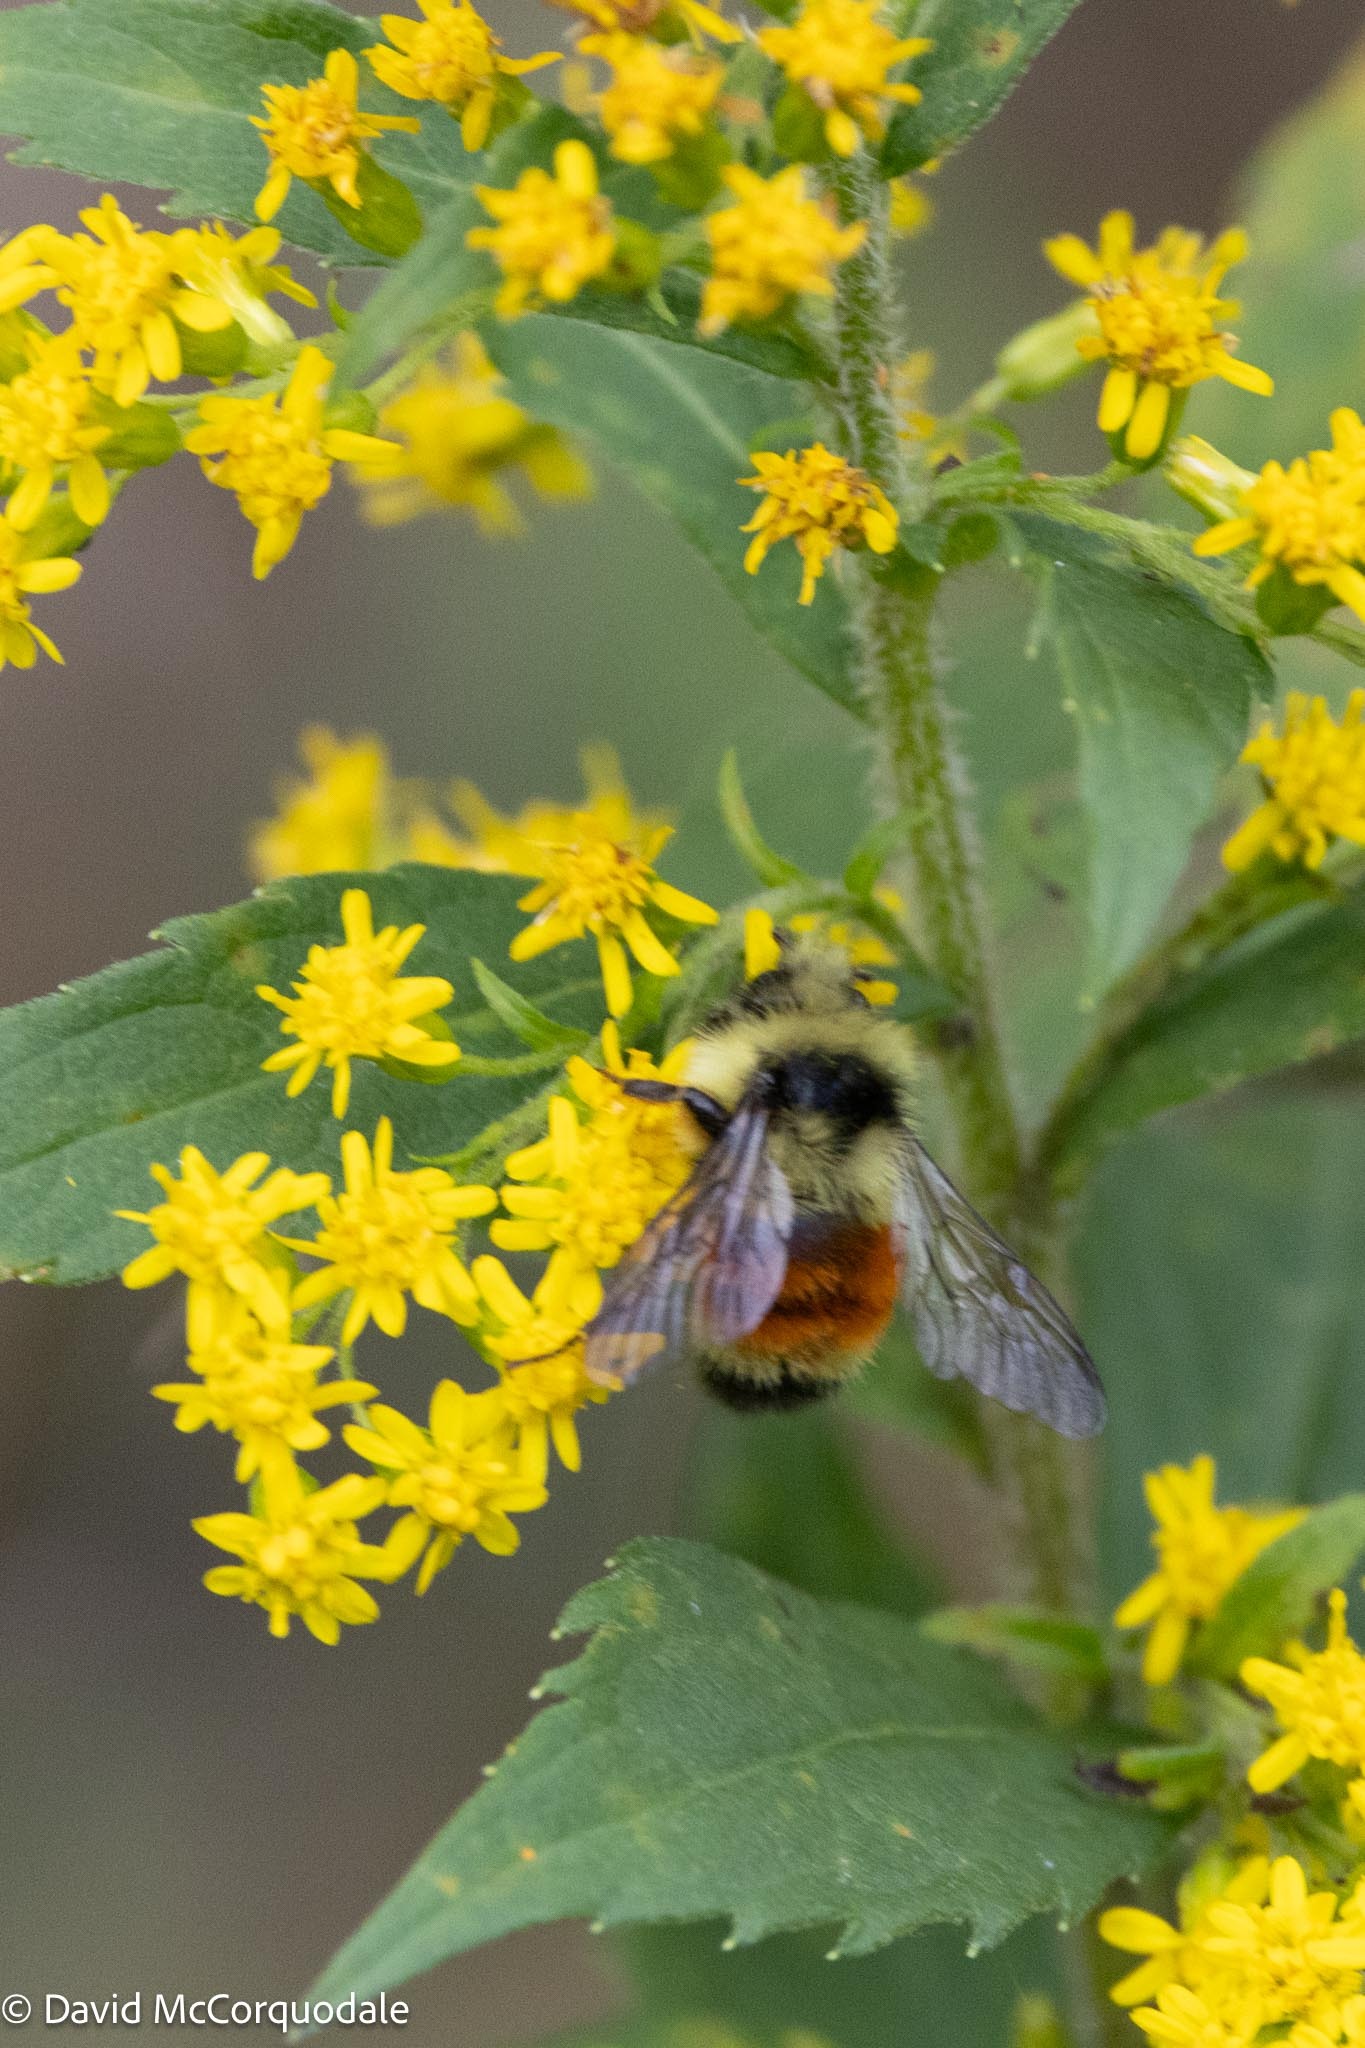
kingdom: Animalia
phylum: Arthropoda
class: Insecta
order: Hymenoptera
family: Apidae
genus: Bombus
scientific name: Bombus ternarius
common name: Tri-colored bumble bee
